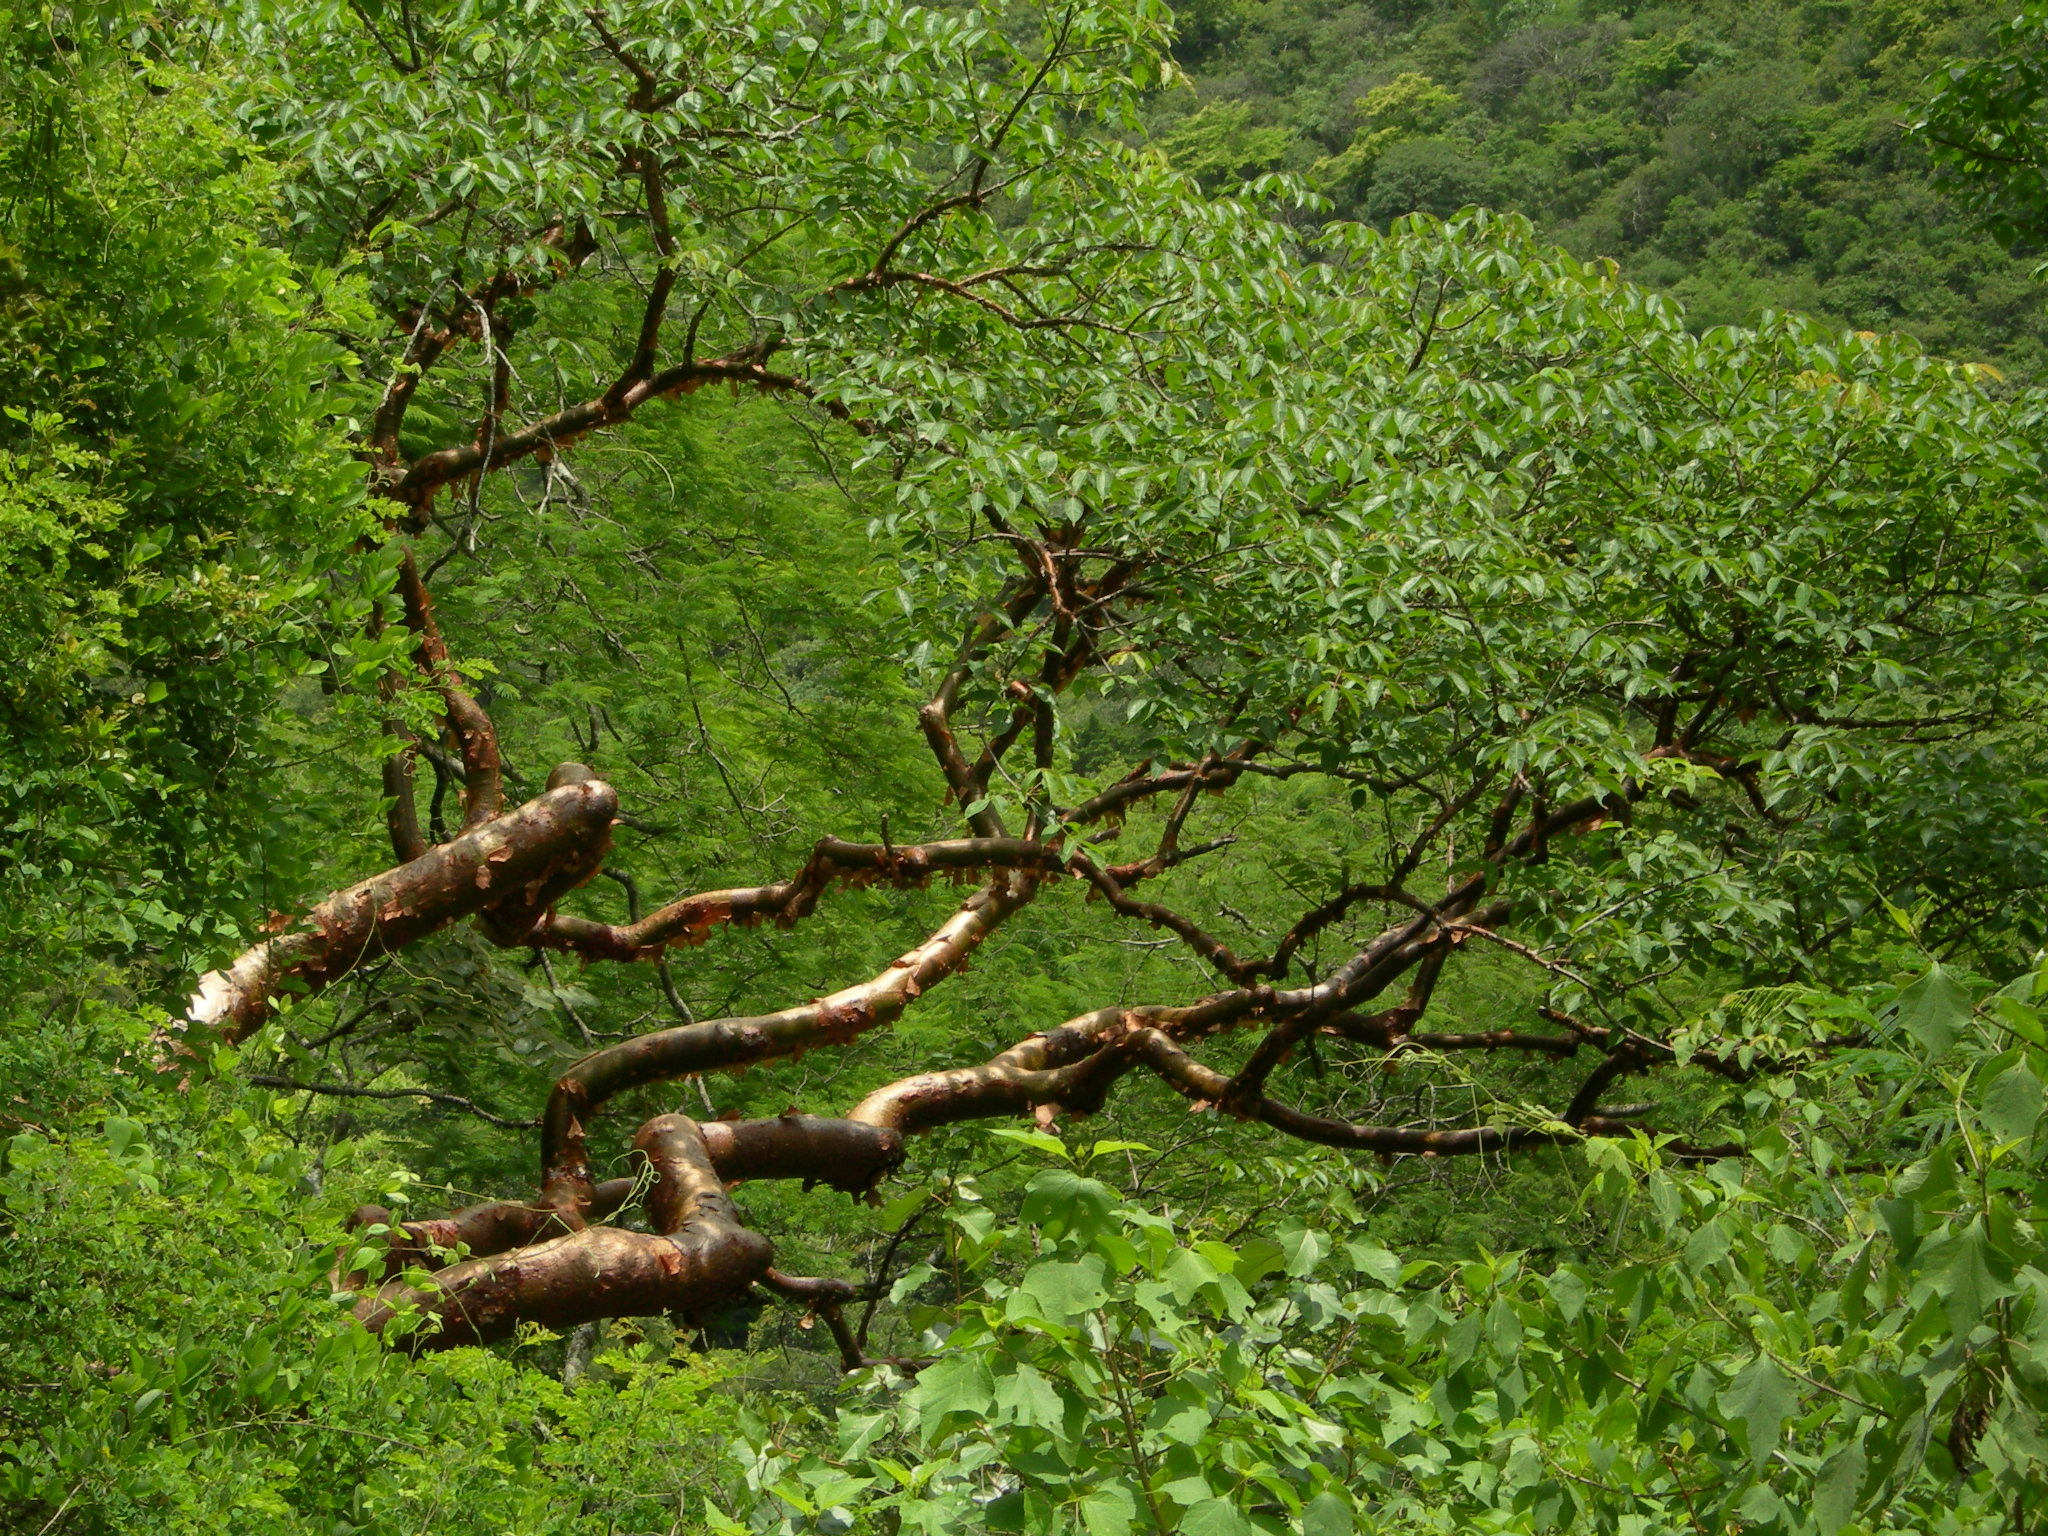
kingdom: Plantae
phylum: Tracheophyta
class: Magnoliopsida
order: Sapindales
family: Burseraceae
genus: Bursera
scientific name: Bursera simaruba
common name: Turpentine tree
